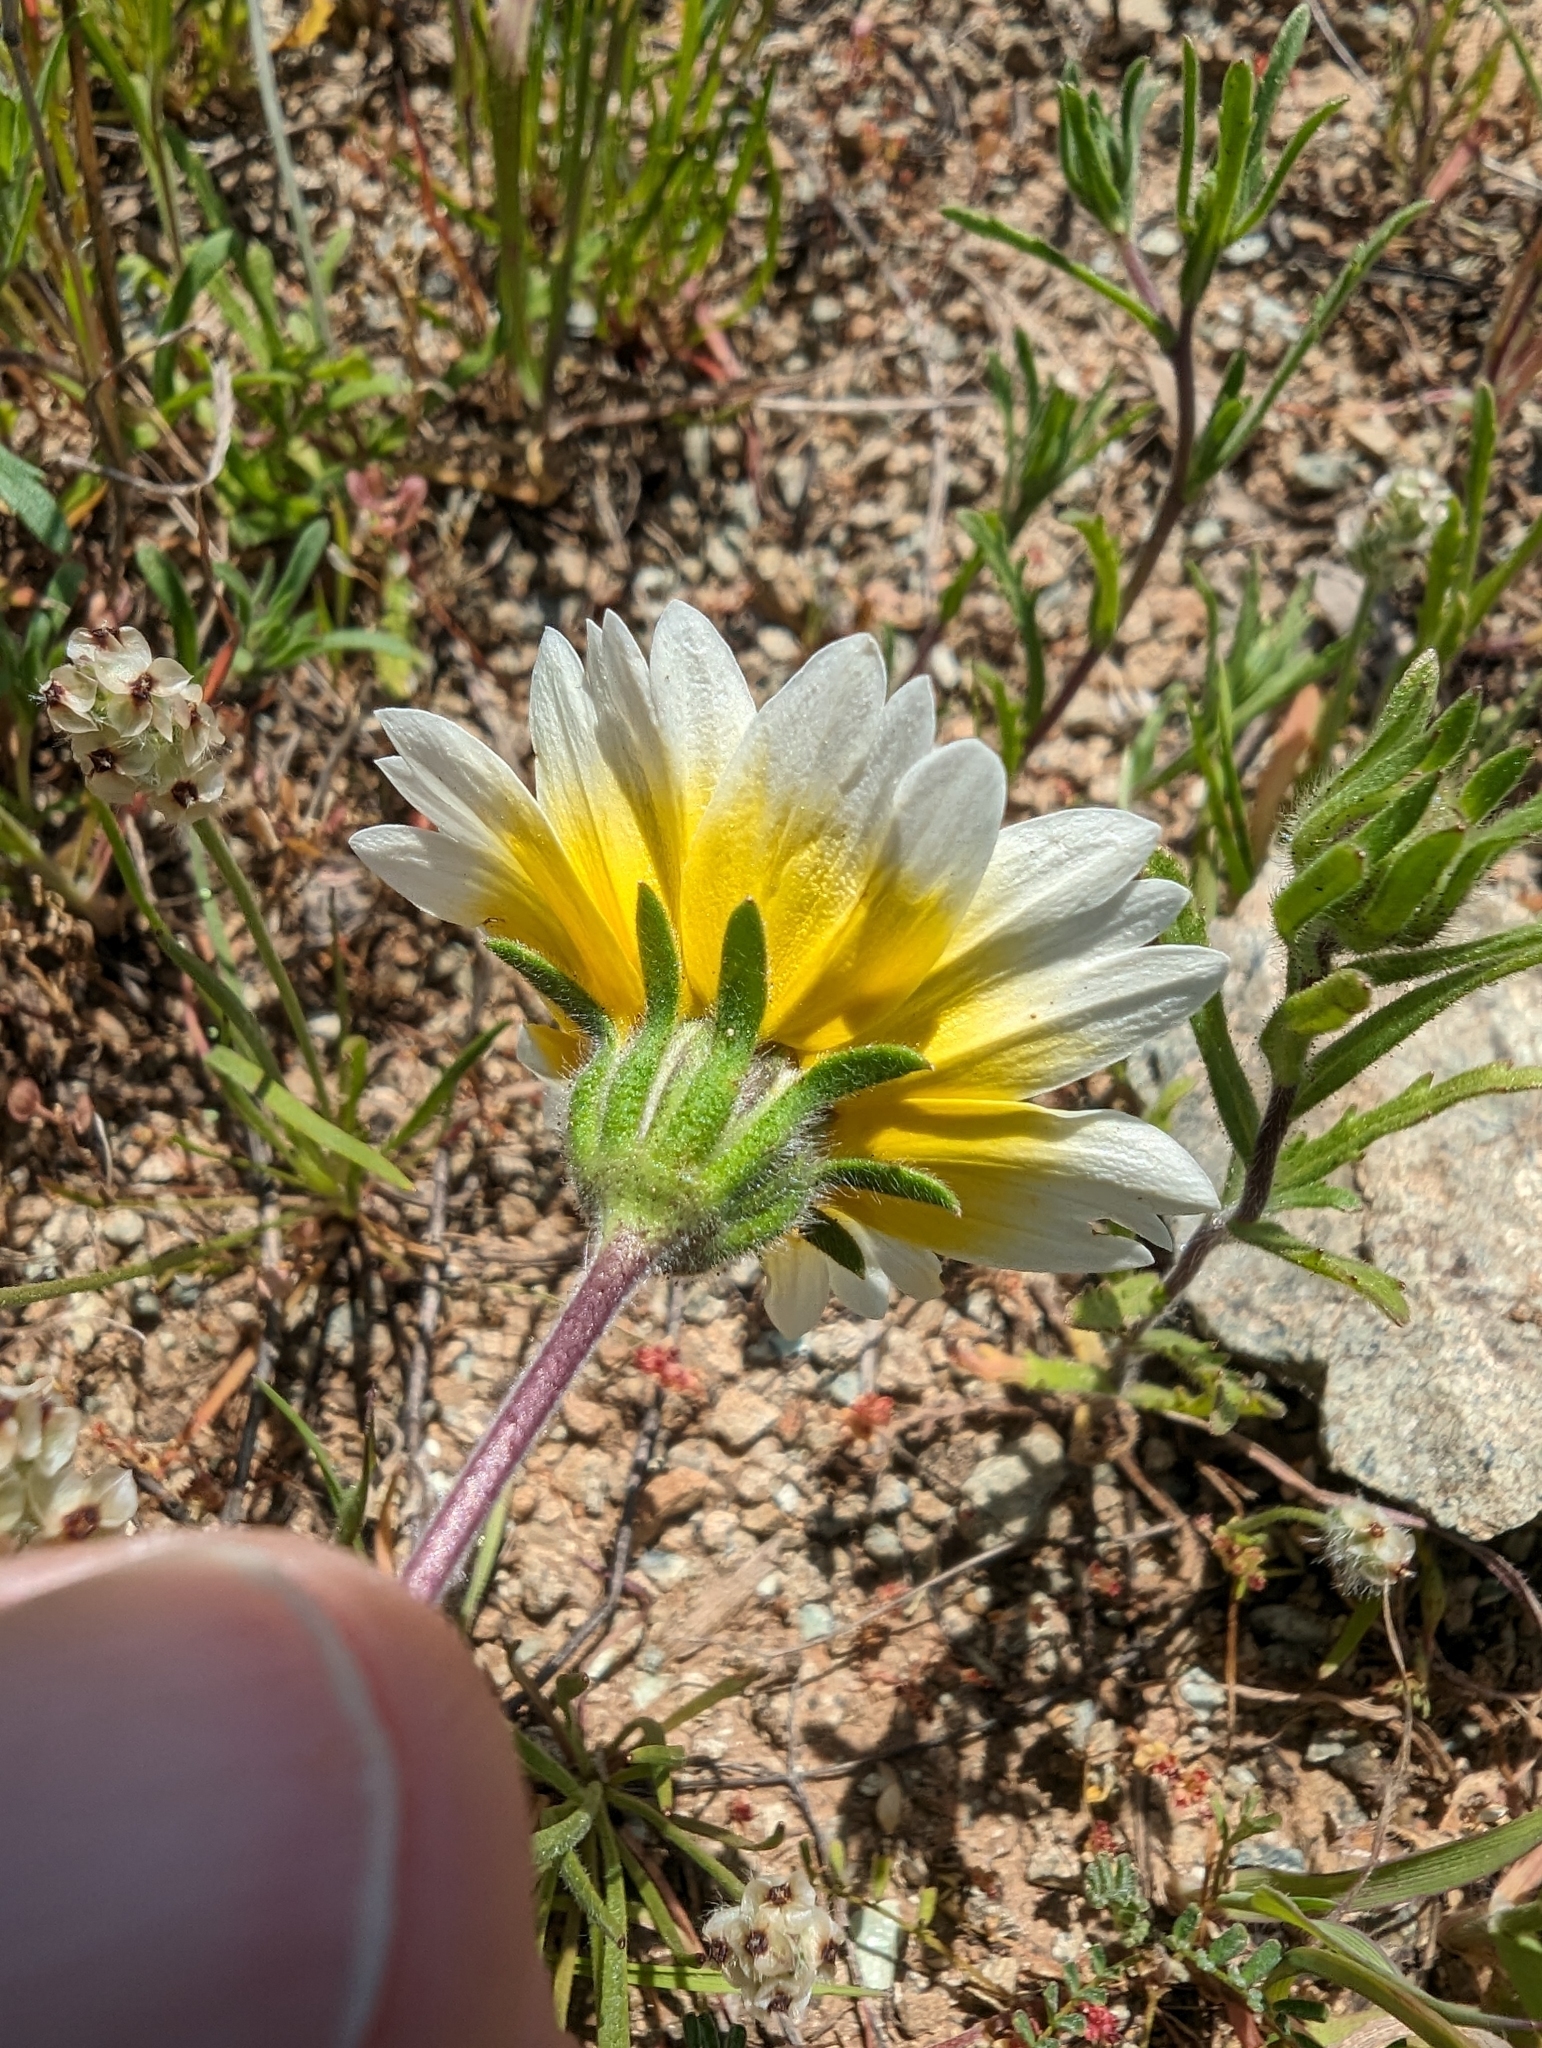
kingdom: Plantae
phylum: Tracheophyta
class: Magnoliopsida
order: Asterales
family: Asteraceae
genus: Layia
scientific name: Layia platyglossa
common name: Tidy-tips
